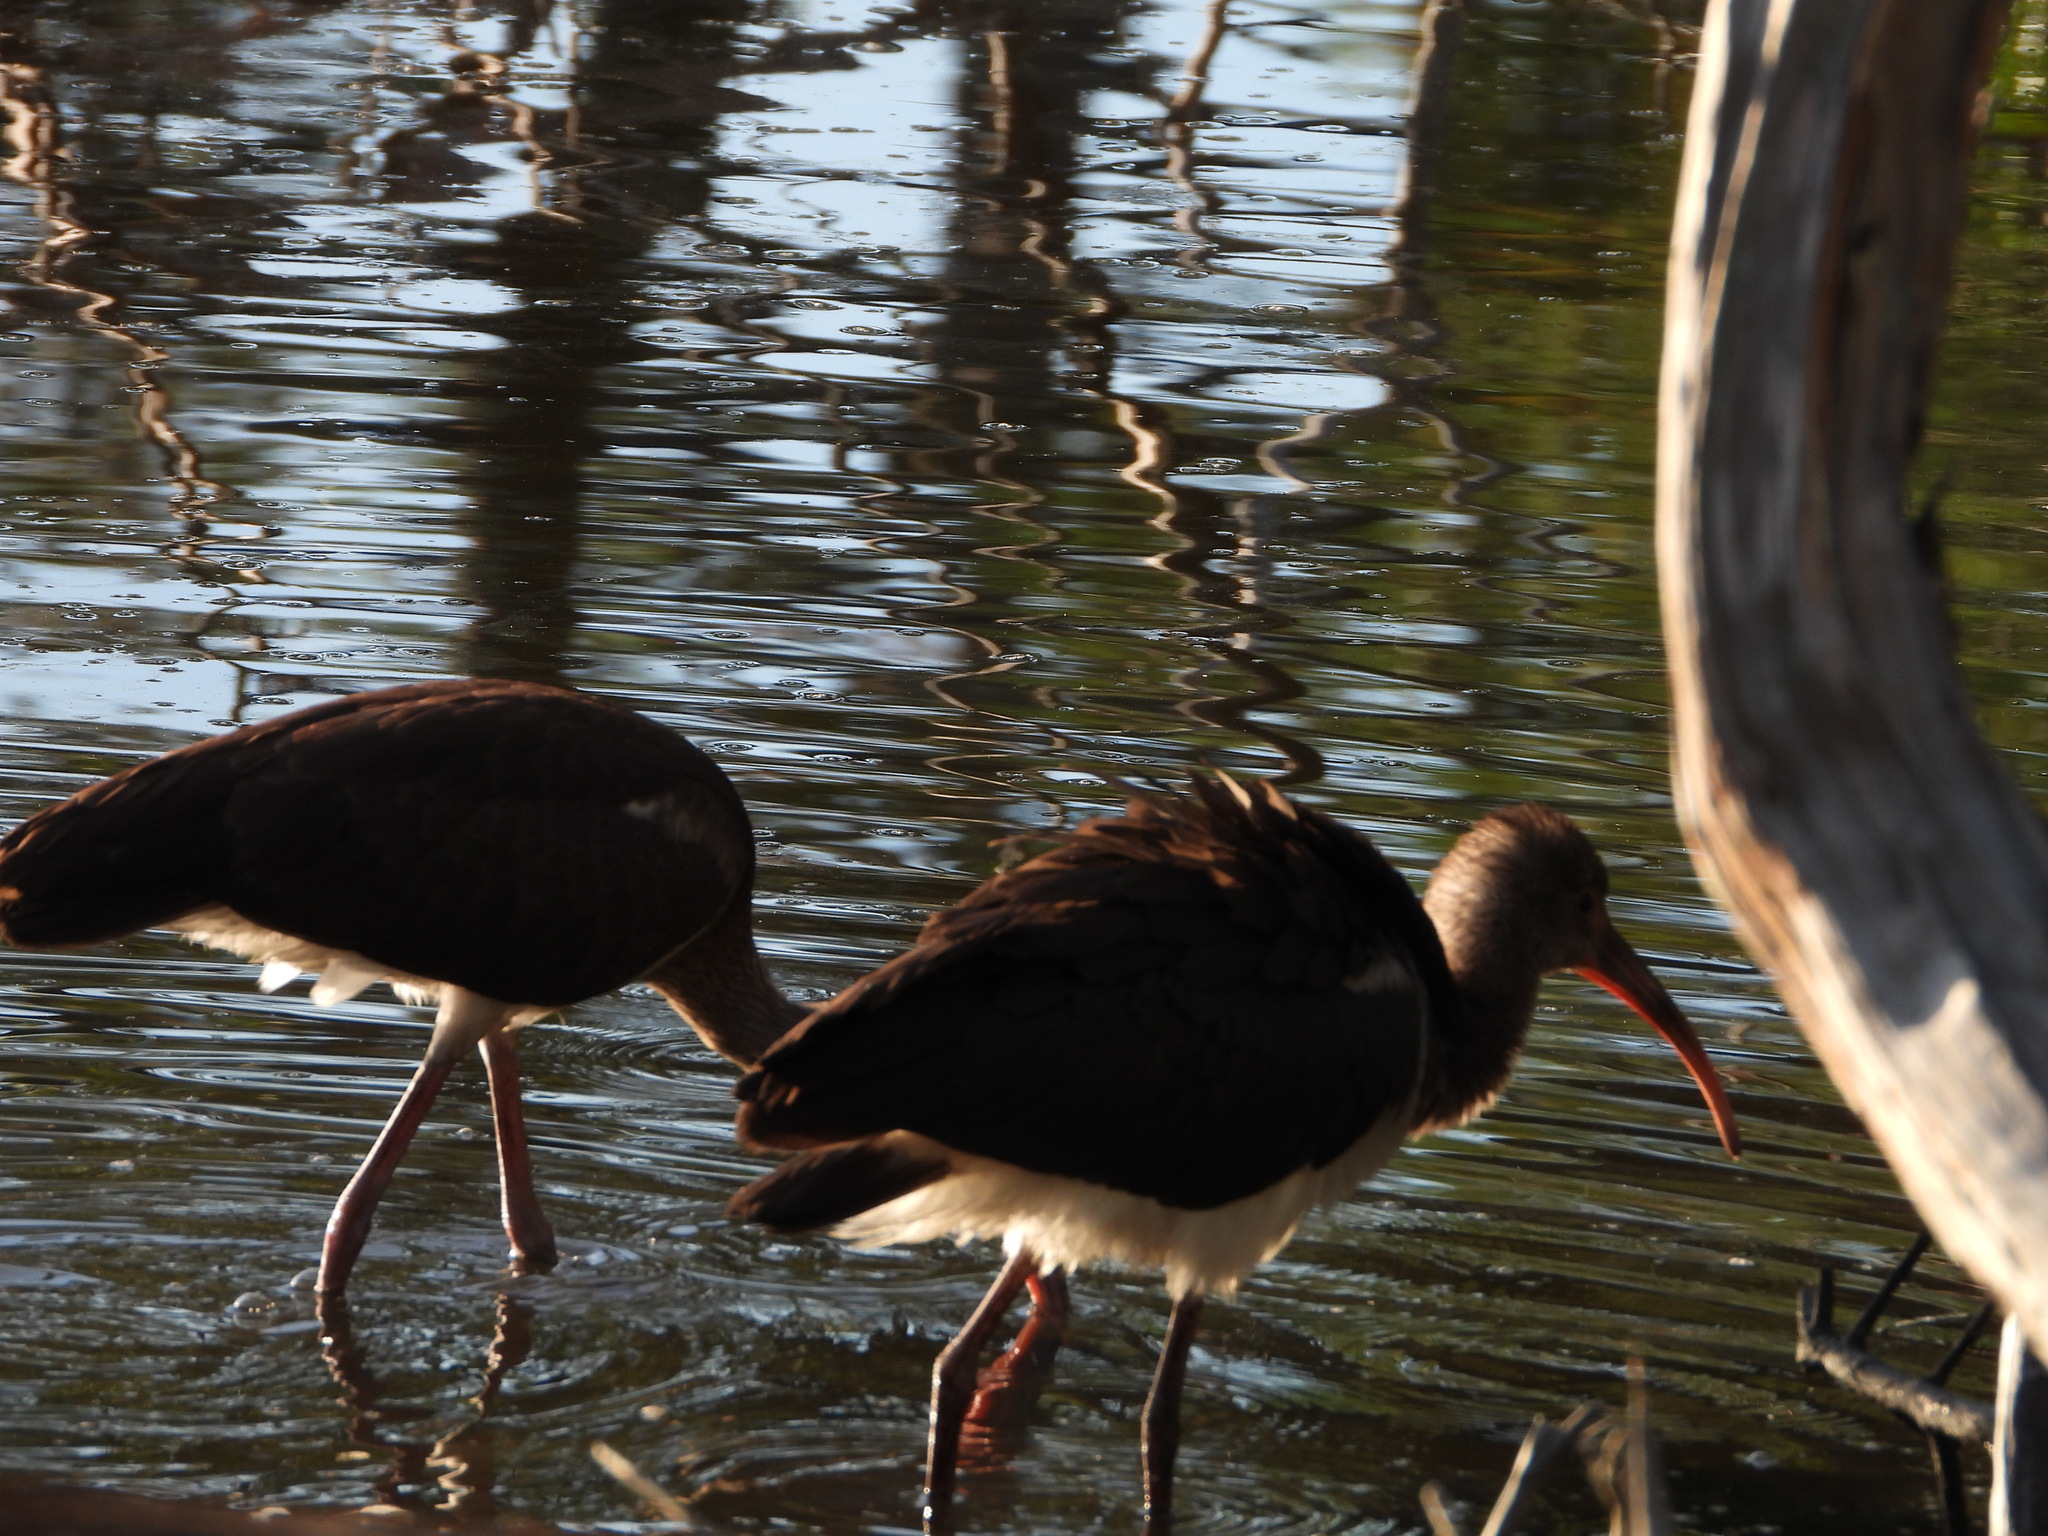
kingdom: Animalia
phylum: Chordata
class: Aves
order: Pelecaniformes
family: Threskiornithidae
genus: Eudocimus
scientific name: Eudocimus albus
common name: White ibis
